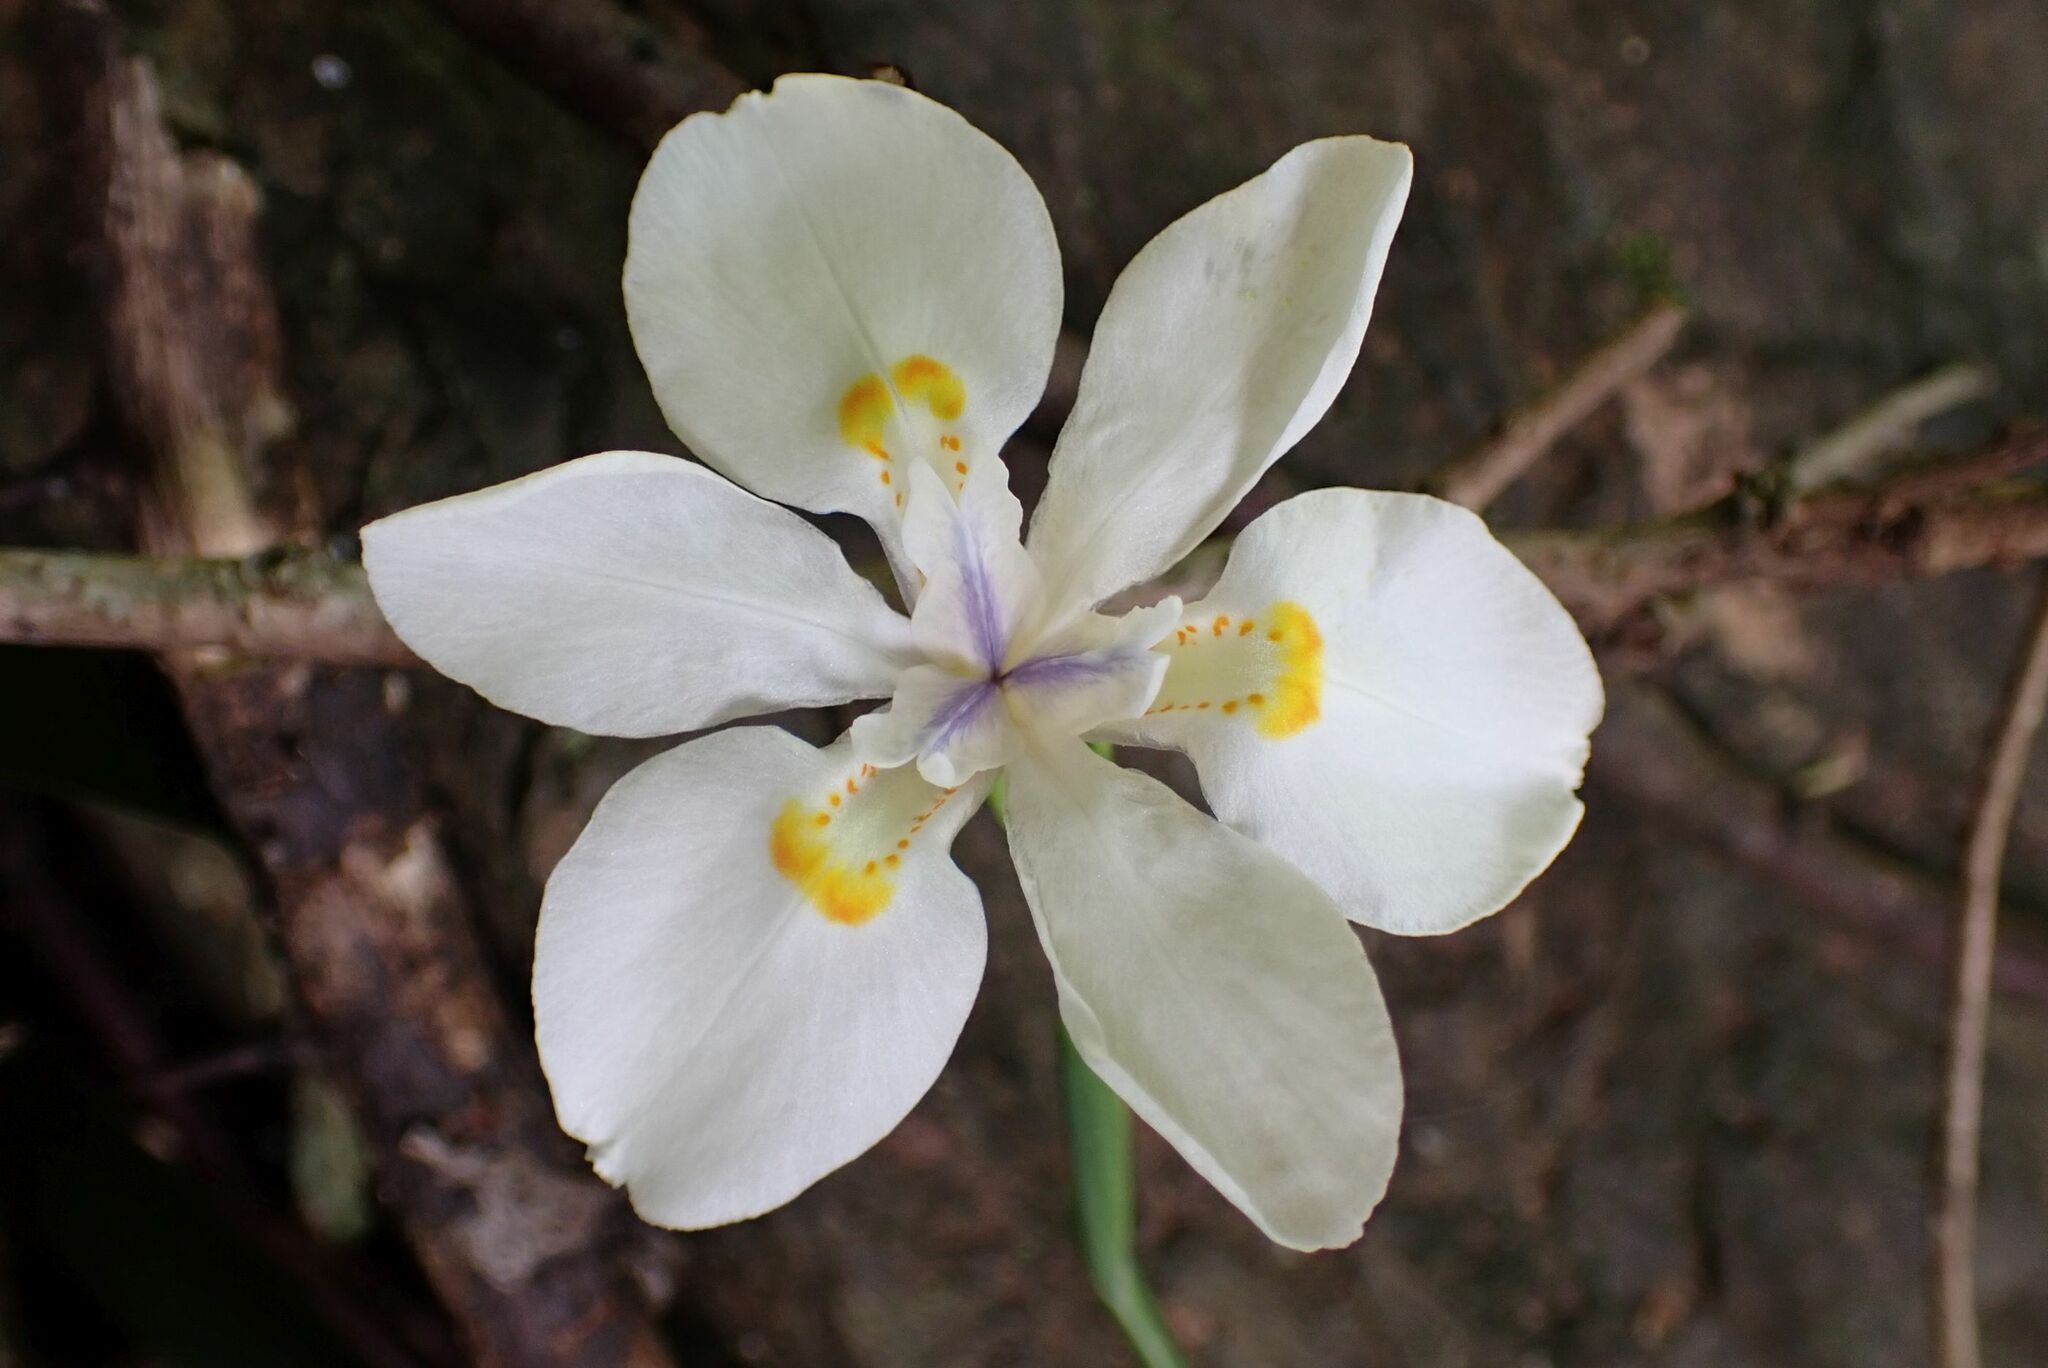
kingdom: Plantae
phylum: Tracheophyta
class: Liliopsida
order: Asparagales
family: Iridaceae
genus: Dietes
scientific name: Dietes iridioides
